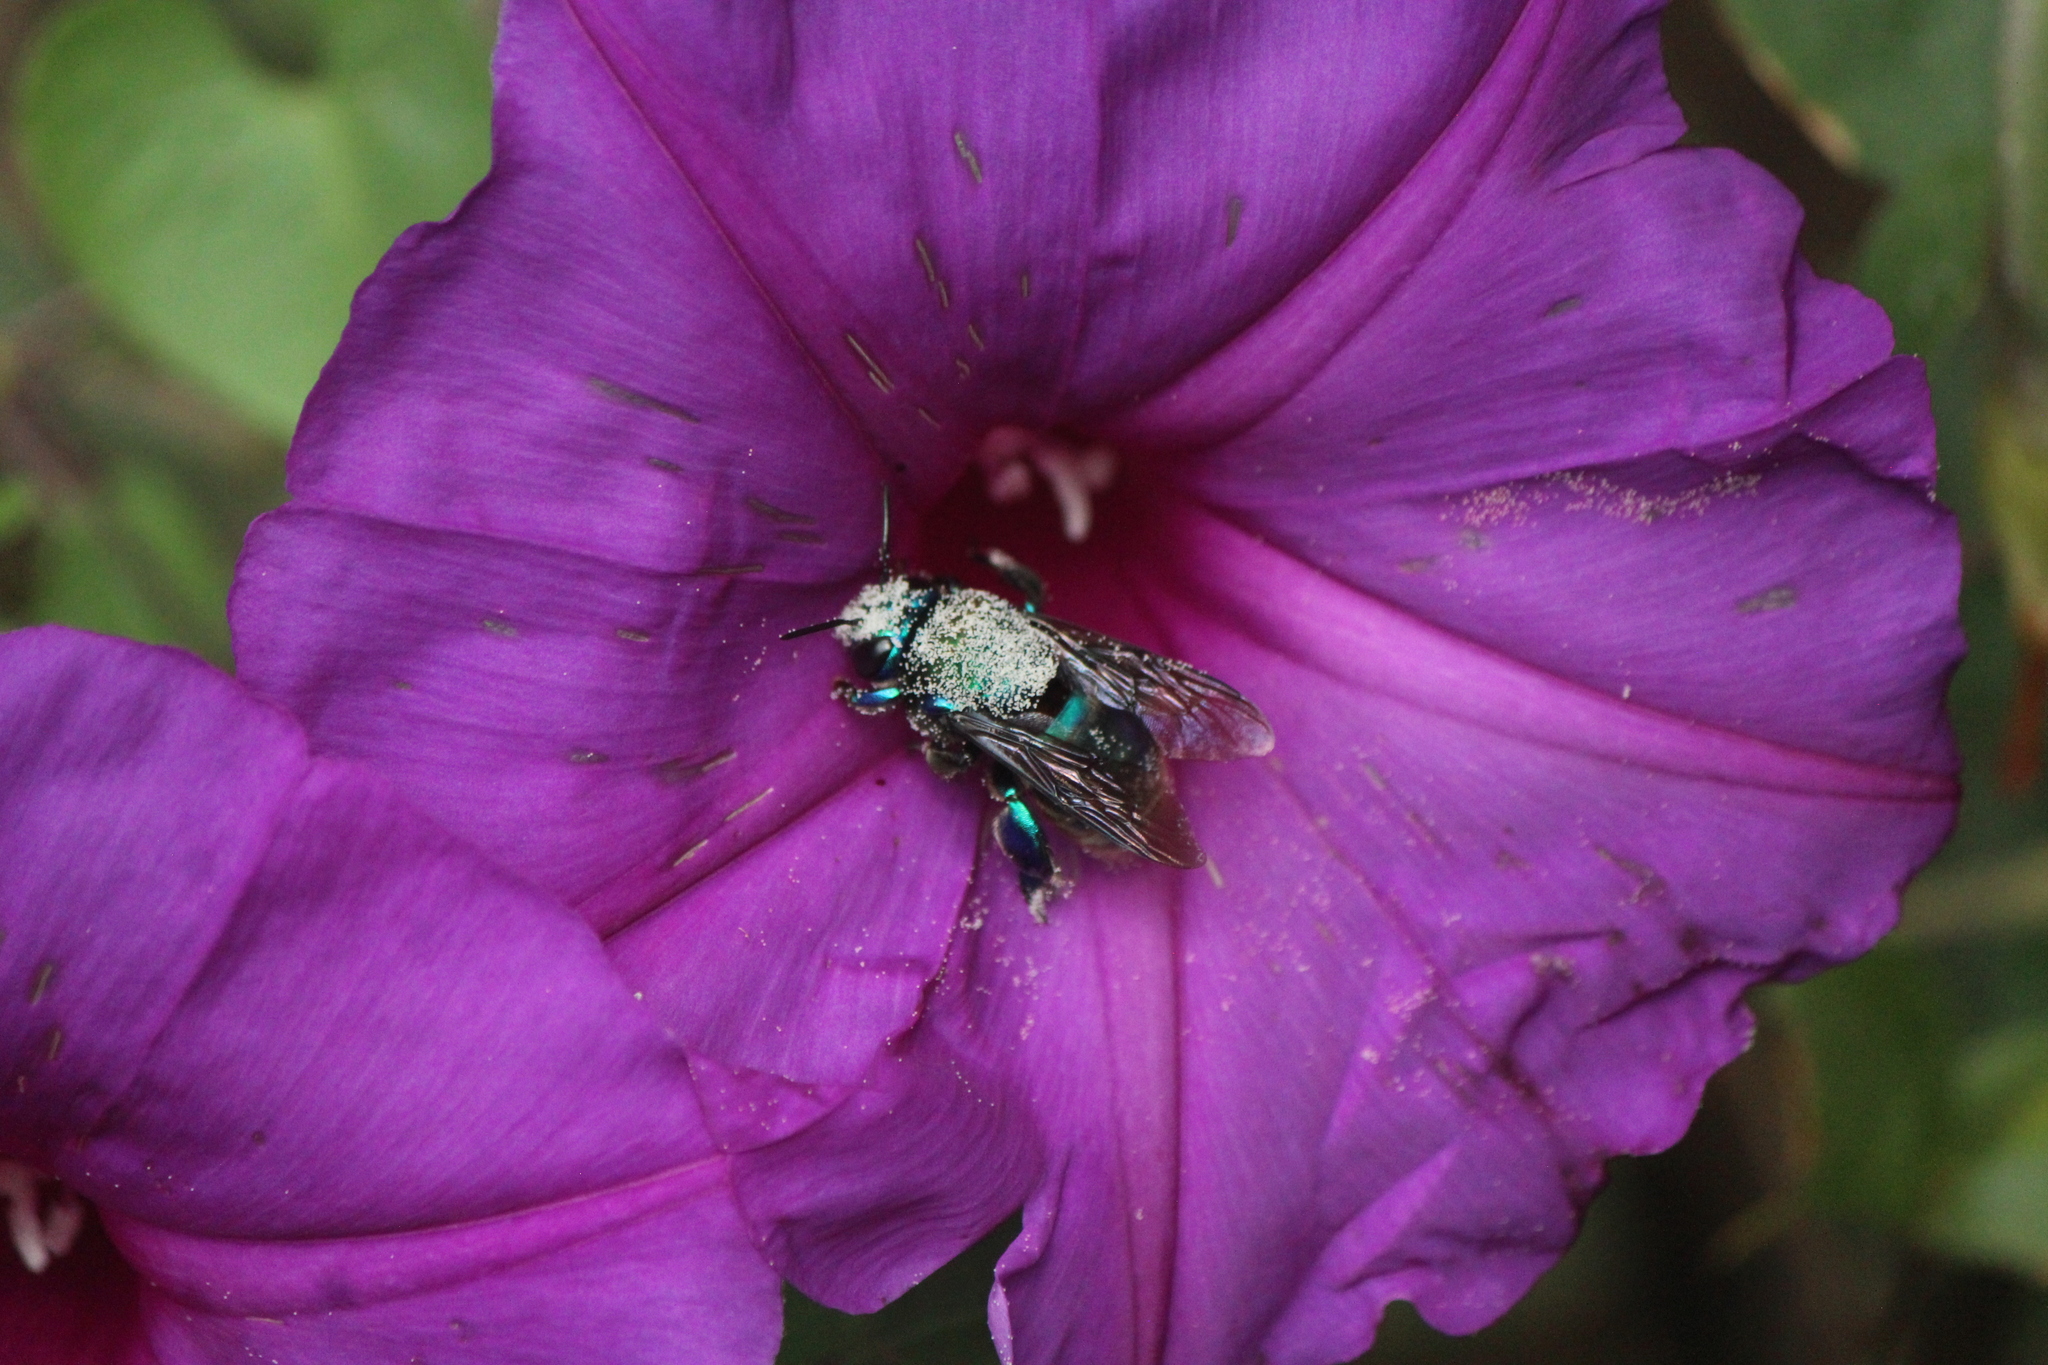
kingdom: Animalia
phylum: Arthropoda
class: Insecta
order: Hymenoptera
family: Apidae
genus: Eufriesea
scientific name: Eufriesea caerulescens
